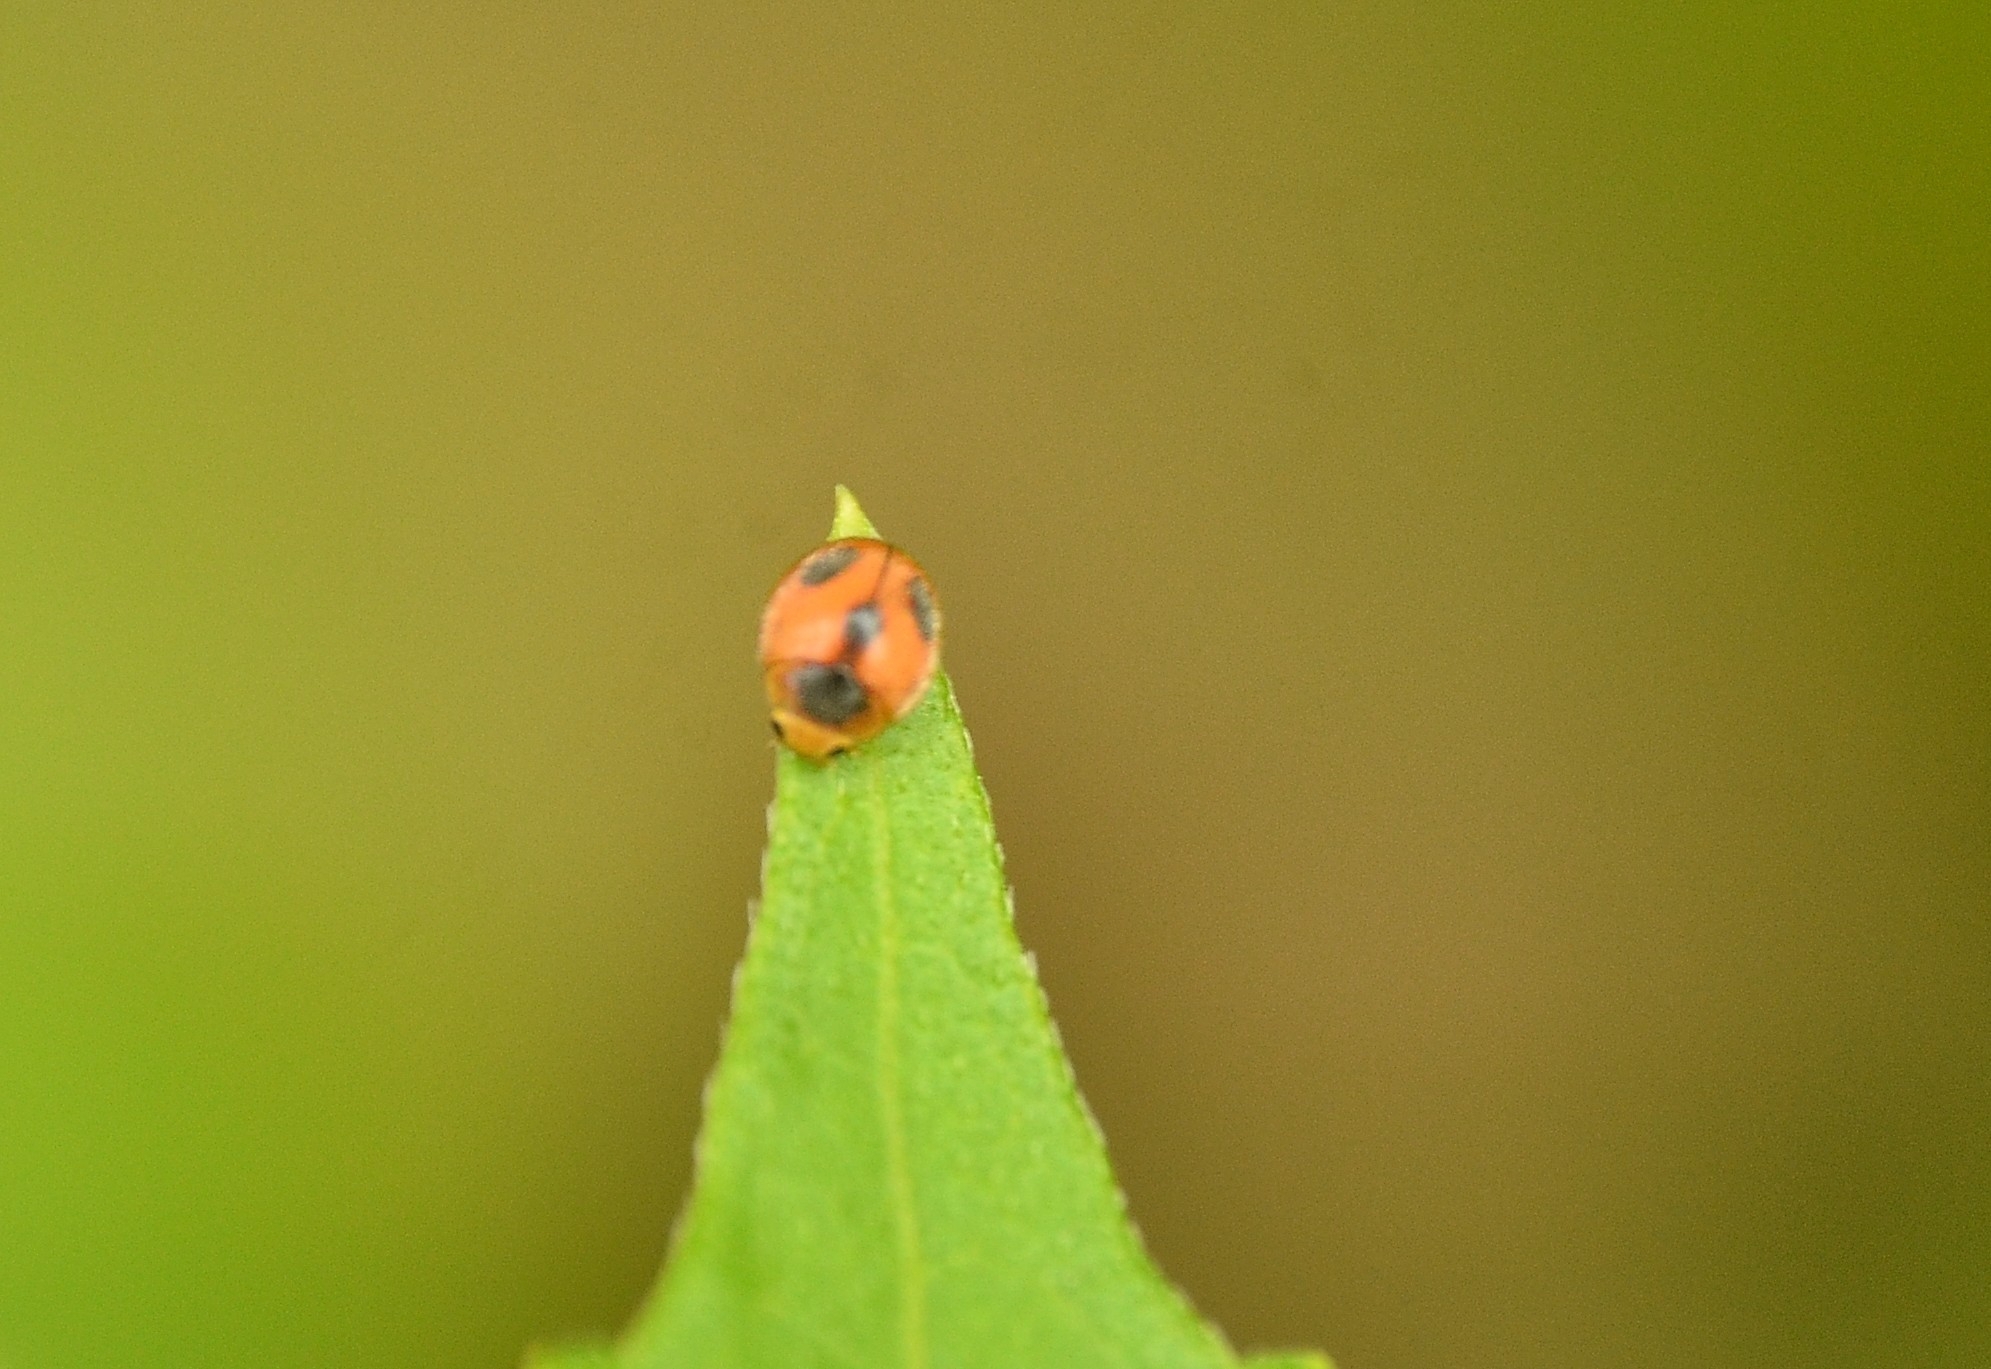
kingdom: Animalia
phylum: Arthropoda
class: Insecta
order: Coleoptera
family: Coccinellidae
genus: Pseudaspidimerus
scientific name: Pseudaspidimerus
